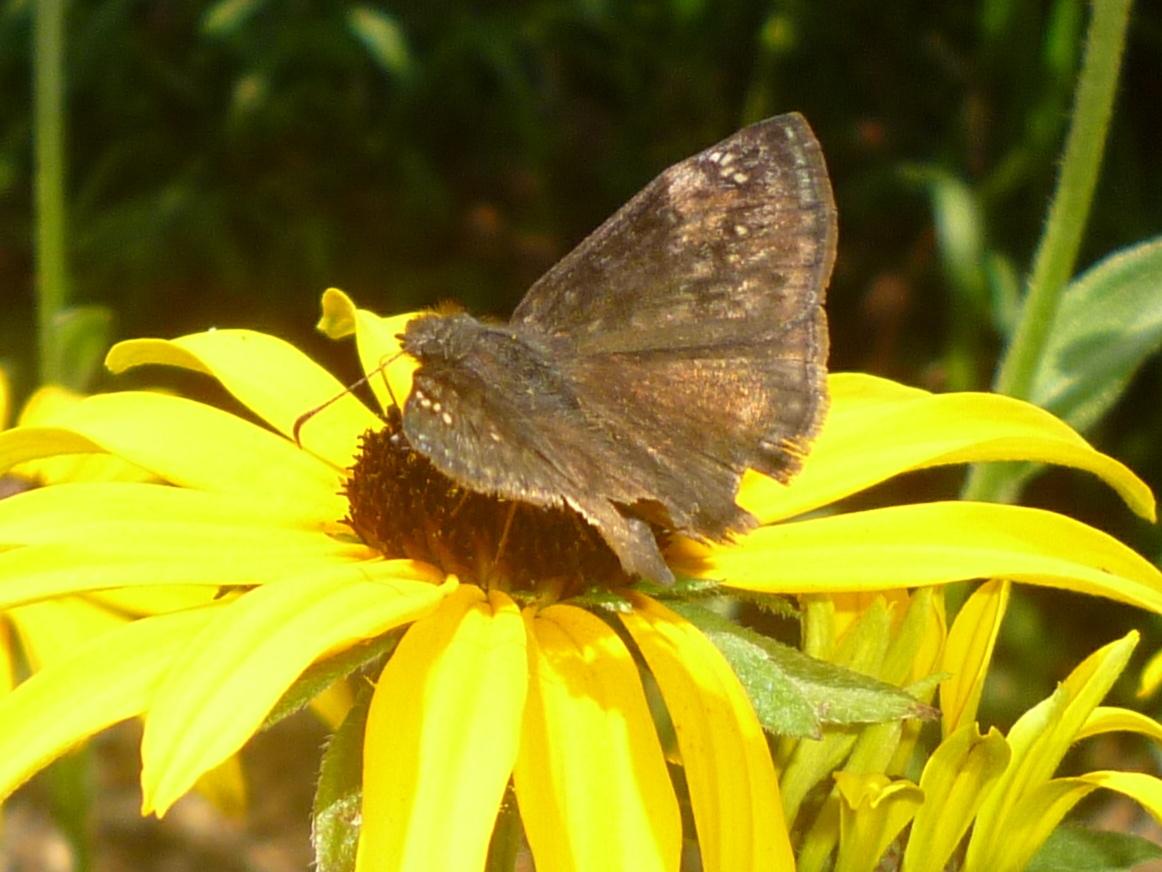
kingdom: Animalia
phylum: Arthropoda
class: Insecta
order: Lepidoptera
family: Hesperiidae
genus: Erynnis
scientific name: Erynnis baptisiae
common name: Wild indigo duskywing
